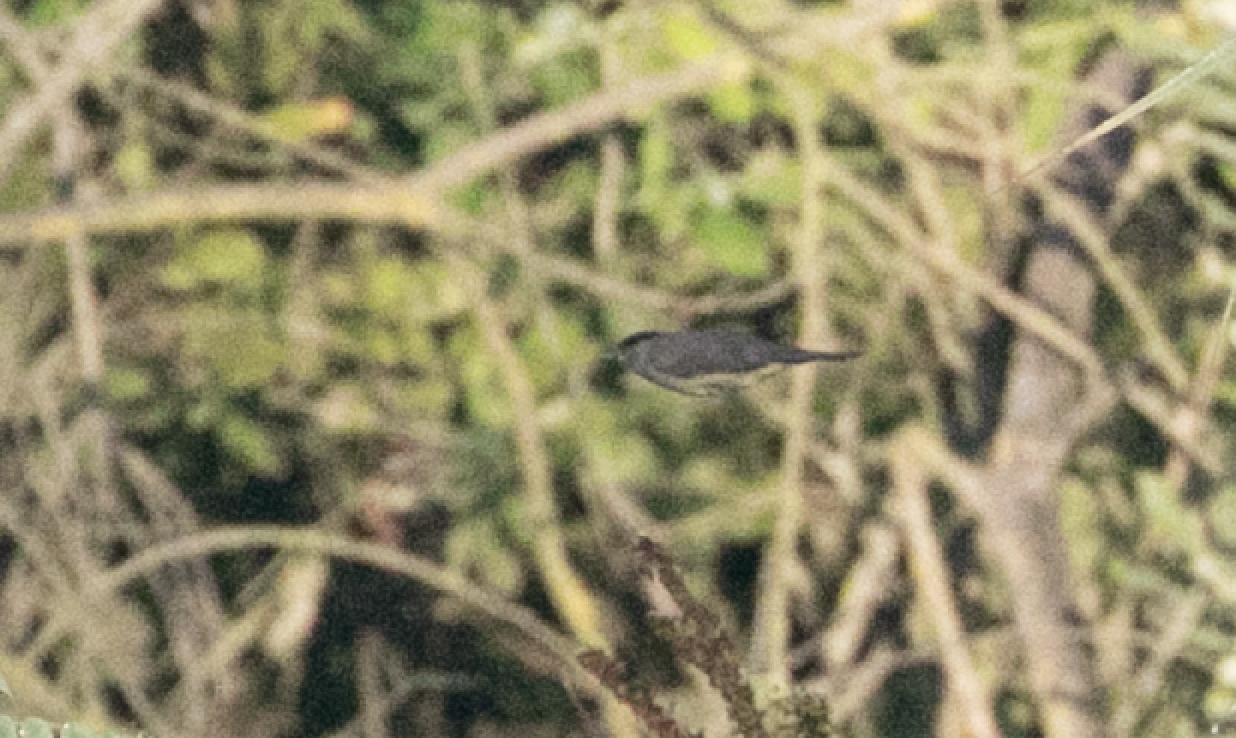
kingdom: Animalia
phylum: Chordata
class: Aves
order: Passeriformes
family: Sylviidae
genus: Sylvia
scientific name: Sylvia atricapilla
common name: Eurasian blackcap
